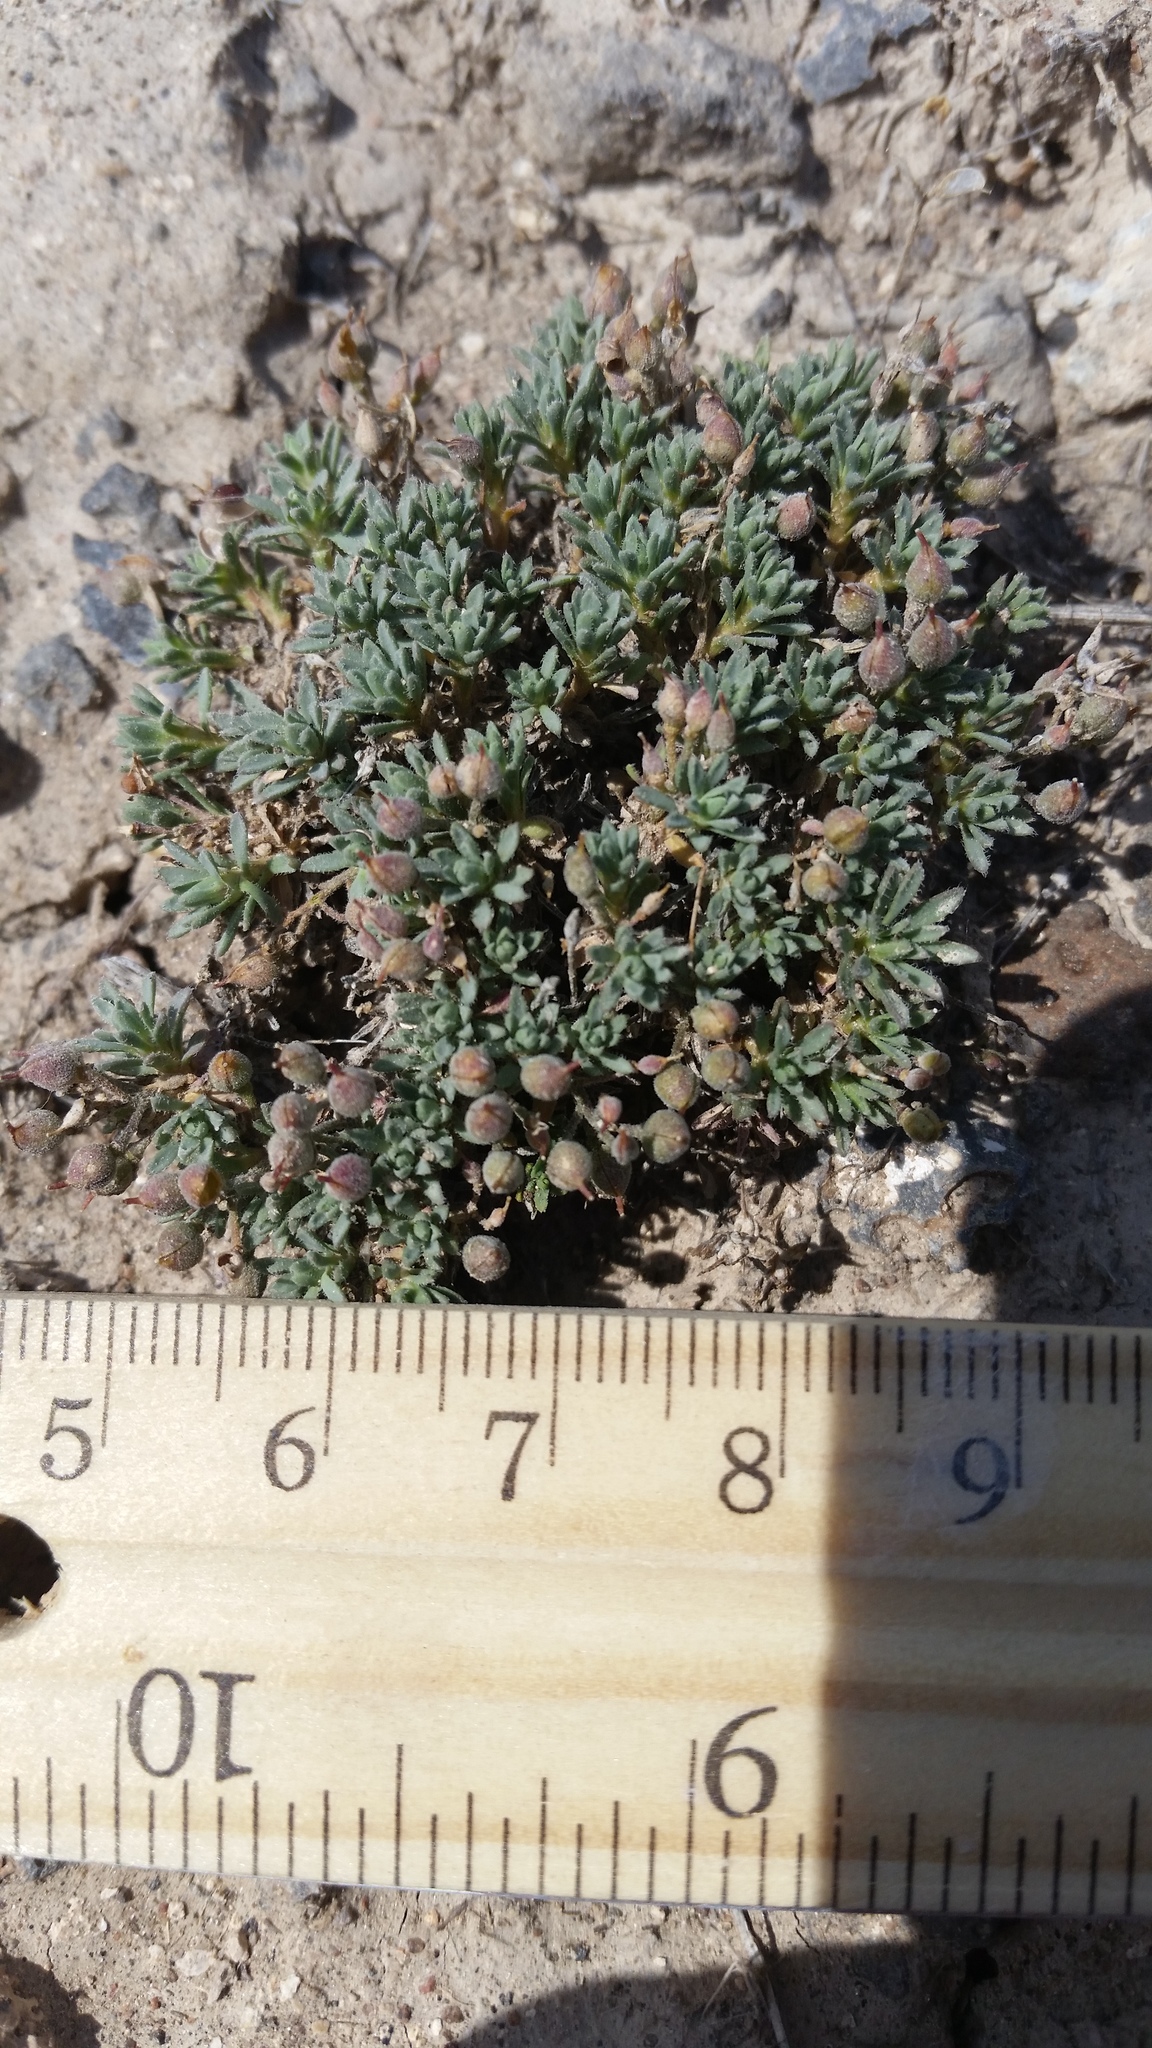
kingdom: Plantae
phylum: Tracheophyta
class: Magnoliopsida
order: Brassicales
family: Brassicaceae
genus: Cusickiella
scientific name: Cusickiella douglasii
